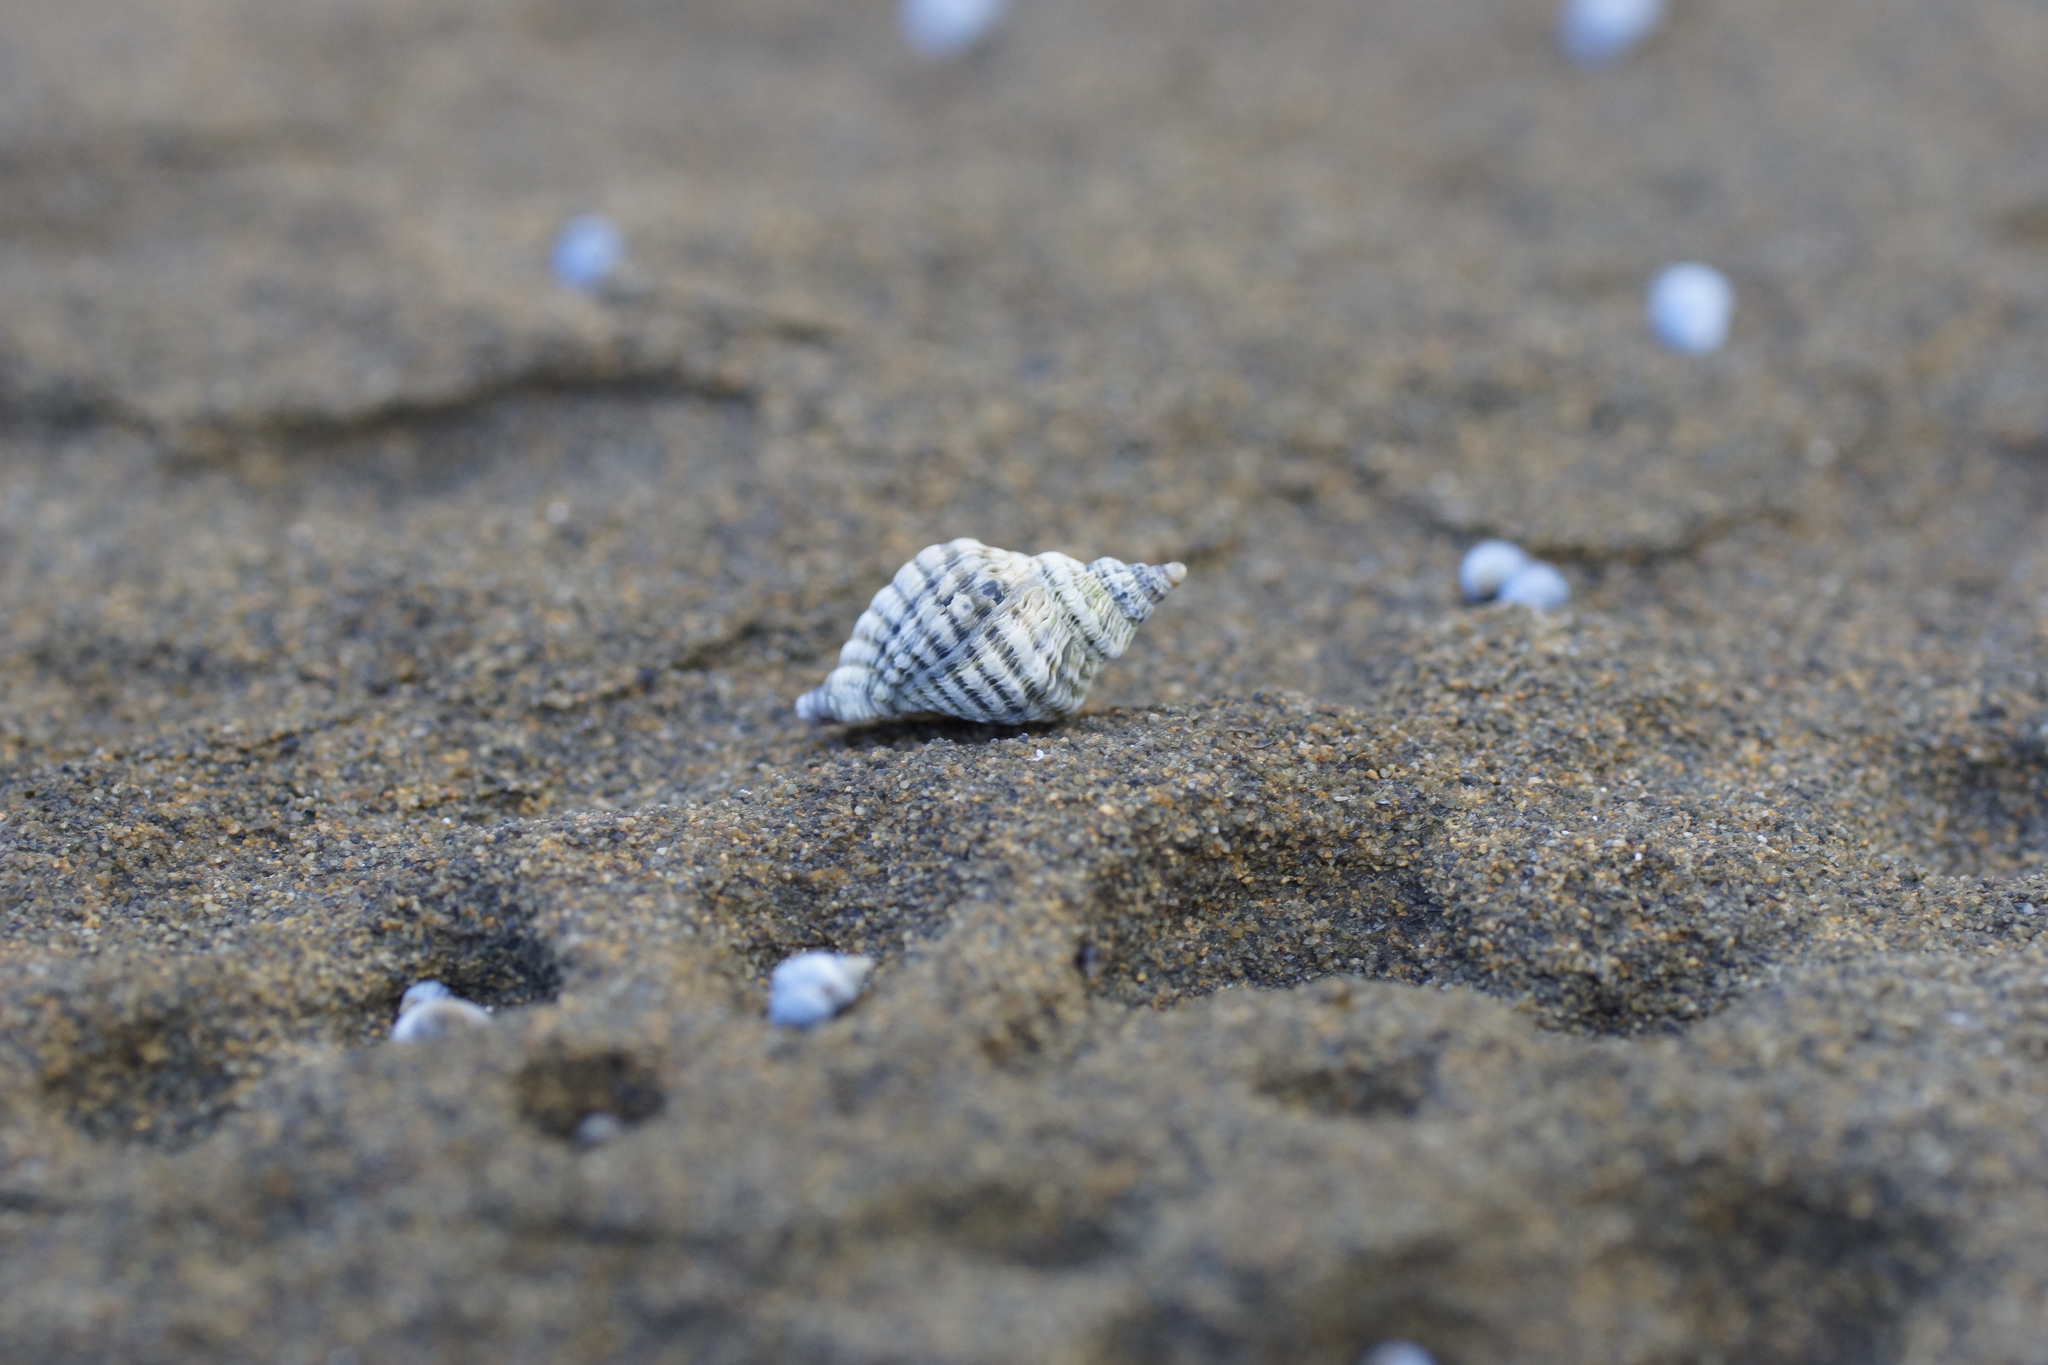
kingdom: Animalia
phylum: Mollusca
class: Gastropoda
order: Neogastropoda
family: Muricidae
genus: Bedeva
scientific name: Bedeva vinosa
